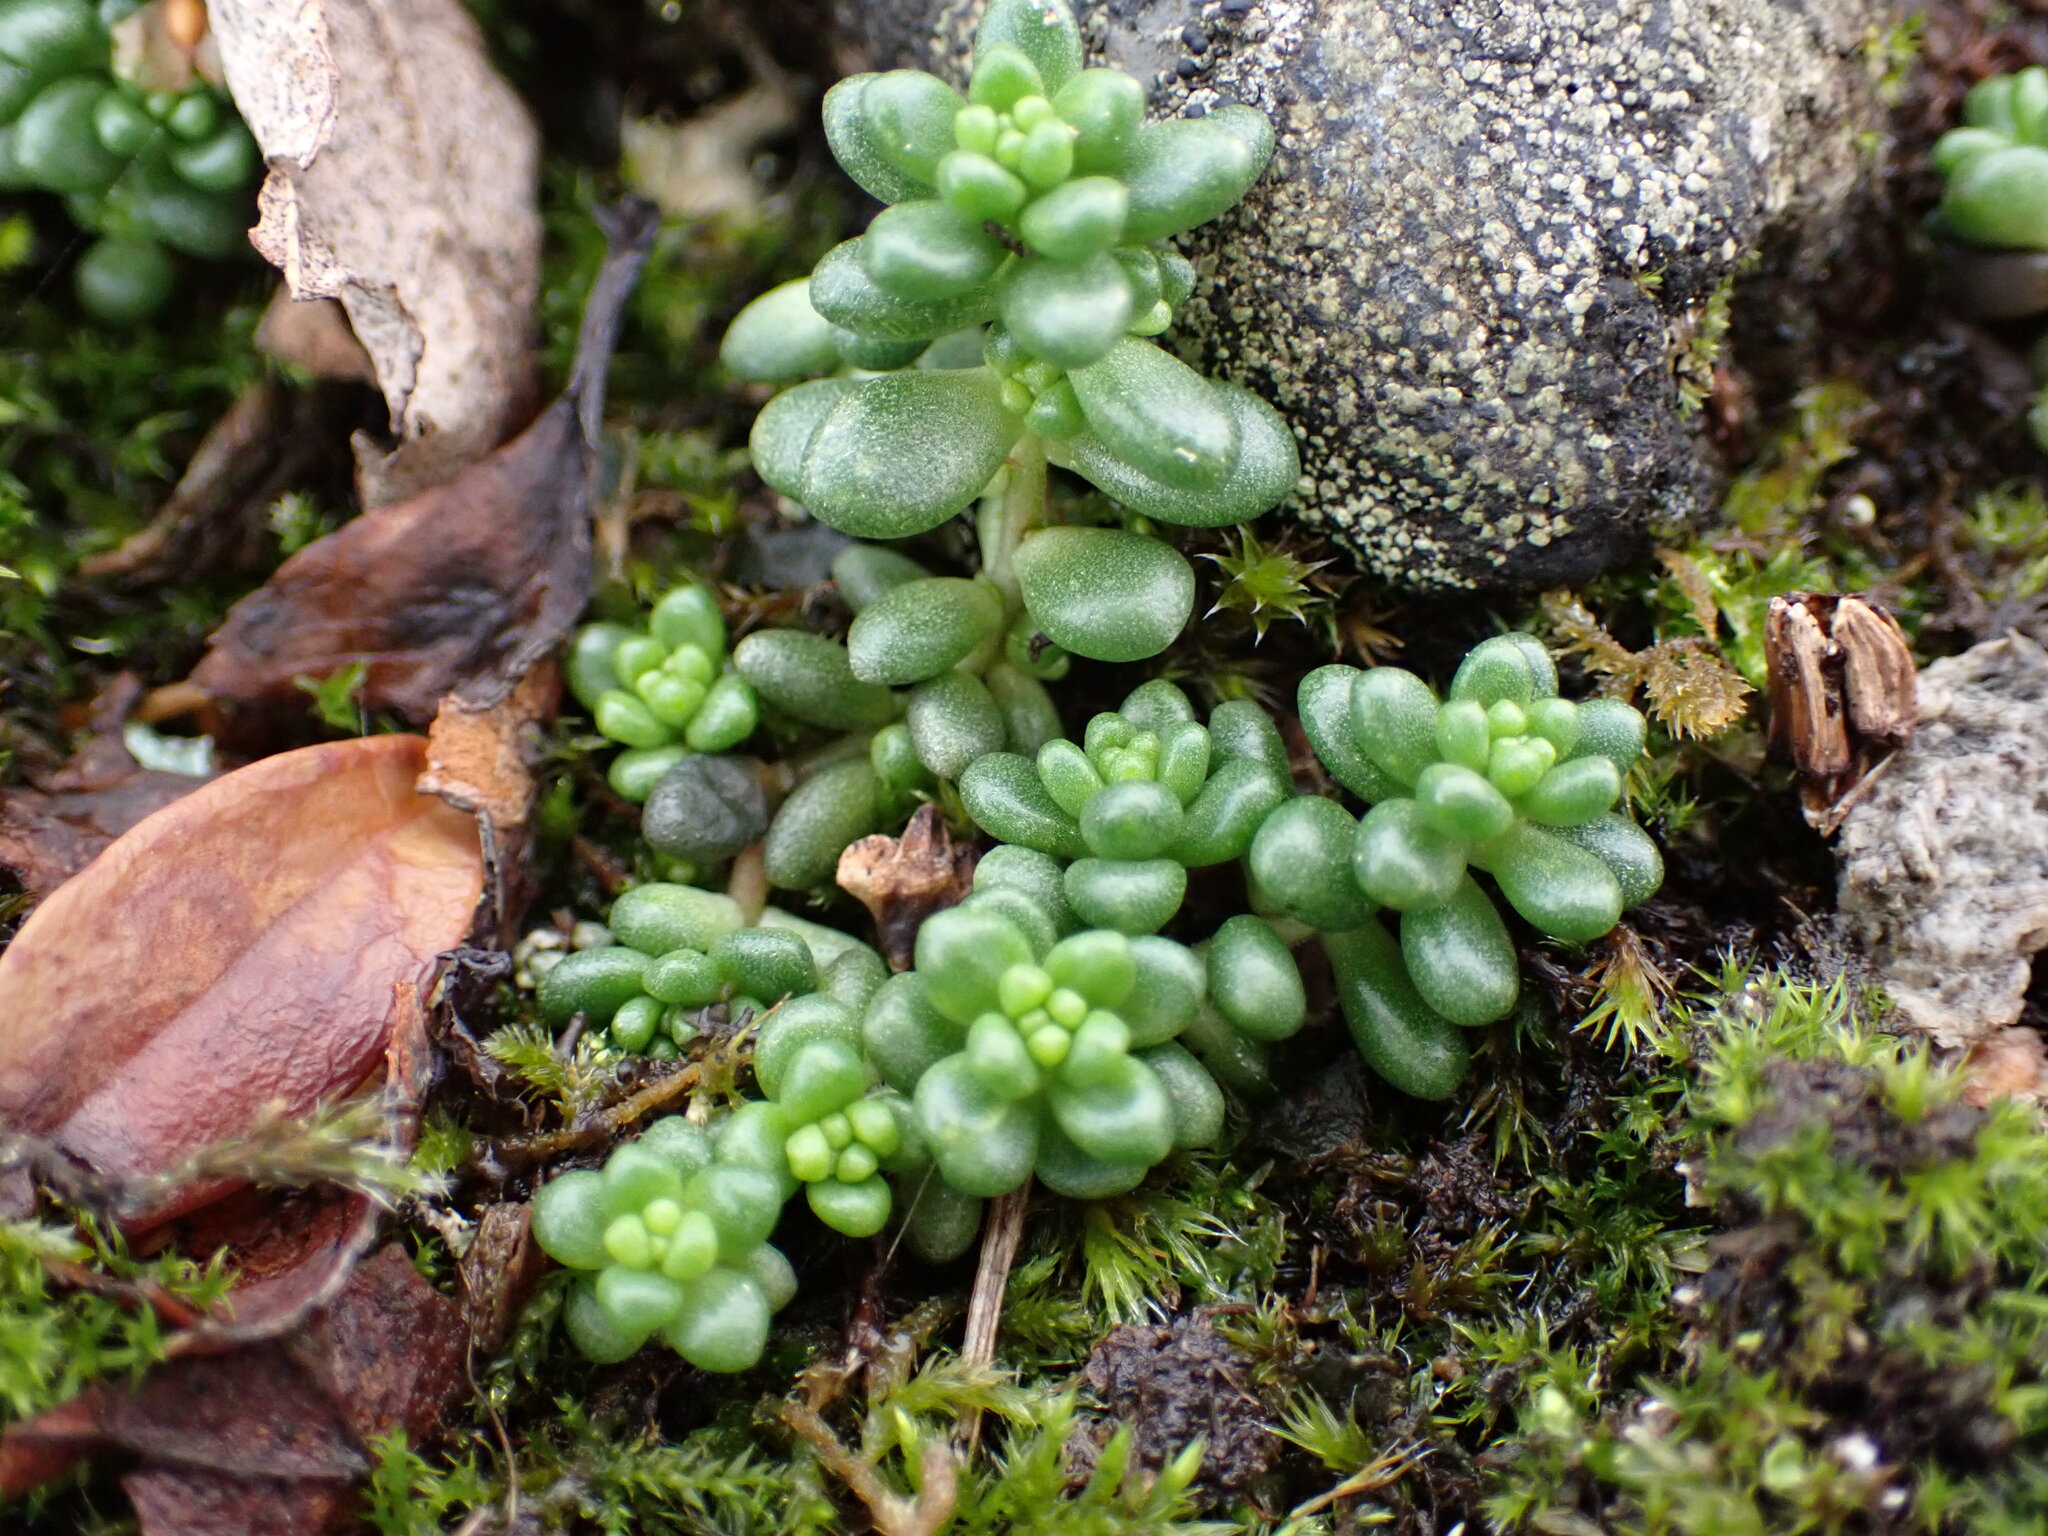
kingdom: Plantae
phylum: Tracheophyta
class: Magnoliopsida
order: Saxifragales
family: Crassulaceae
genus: Sedum
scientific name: Sedum album
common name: White stonecrop
